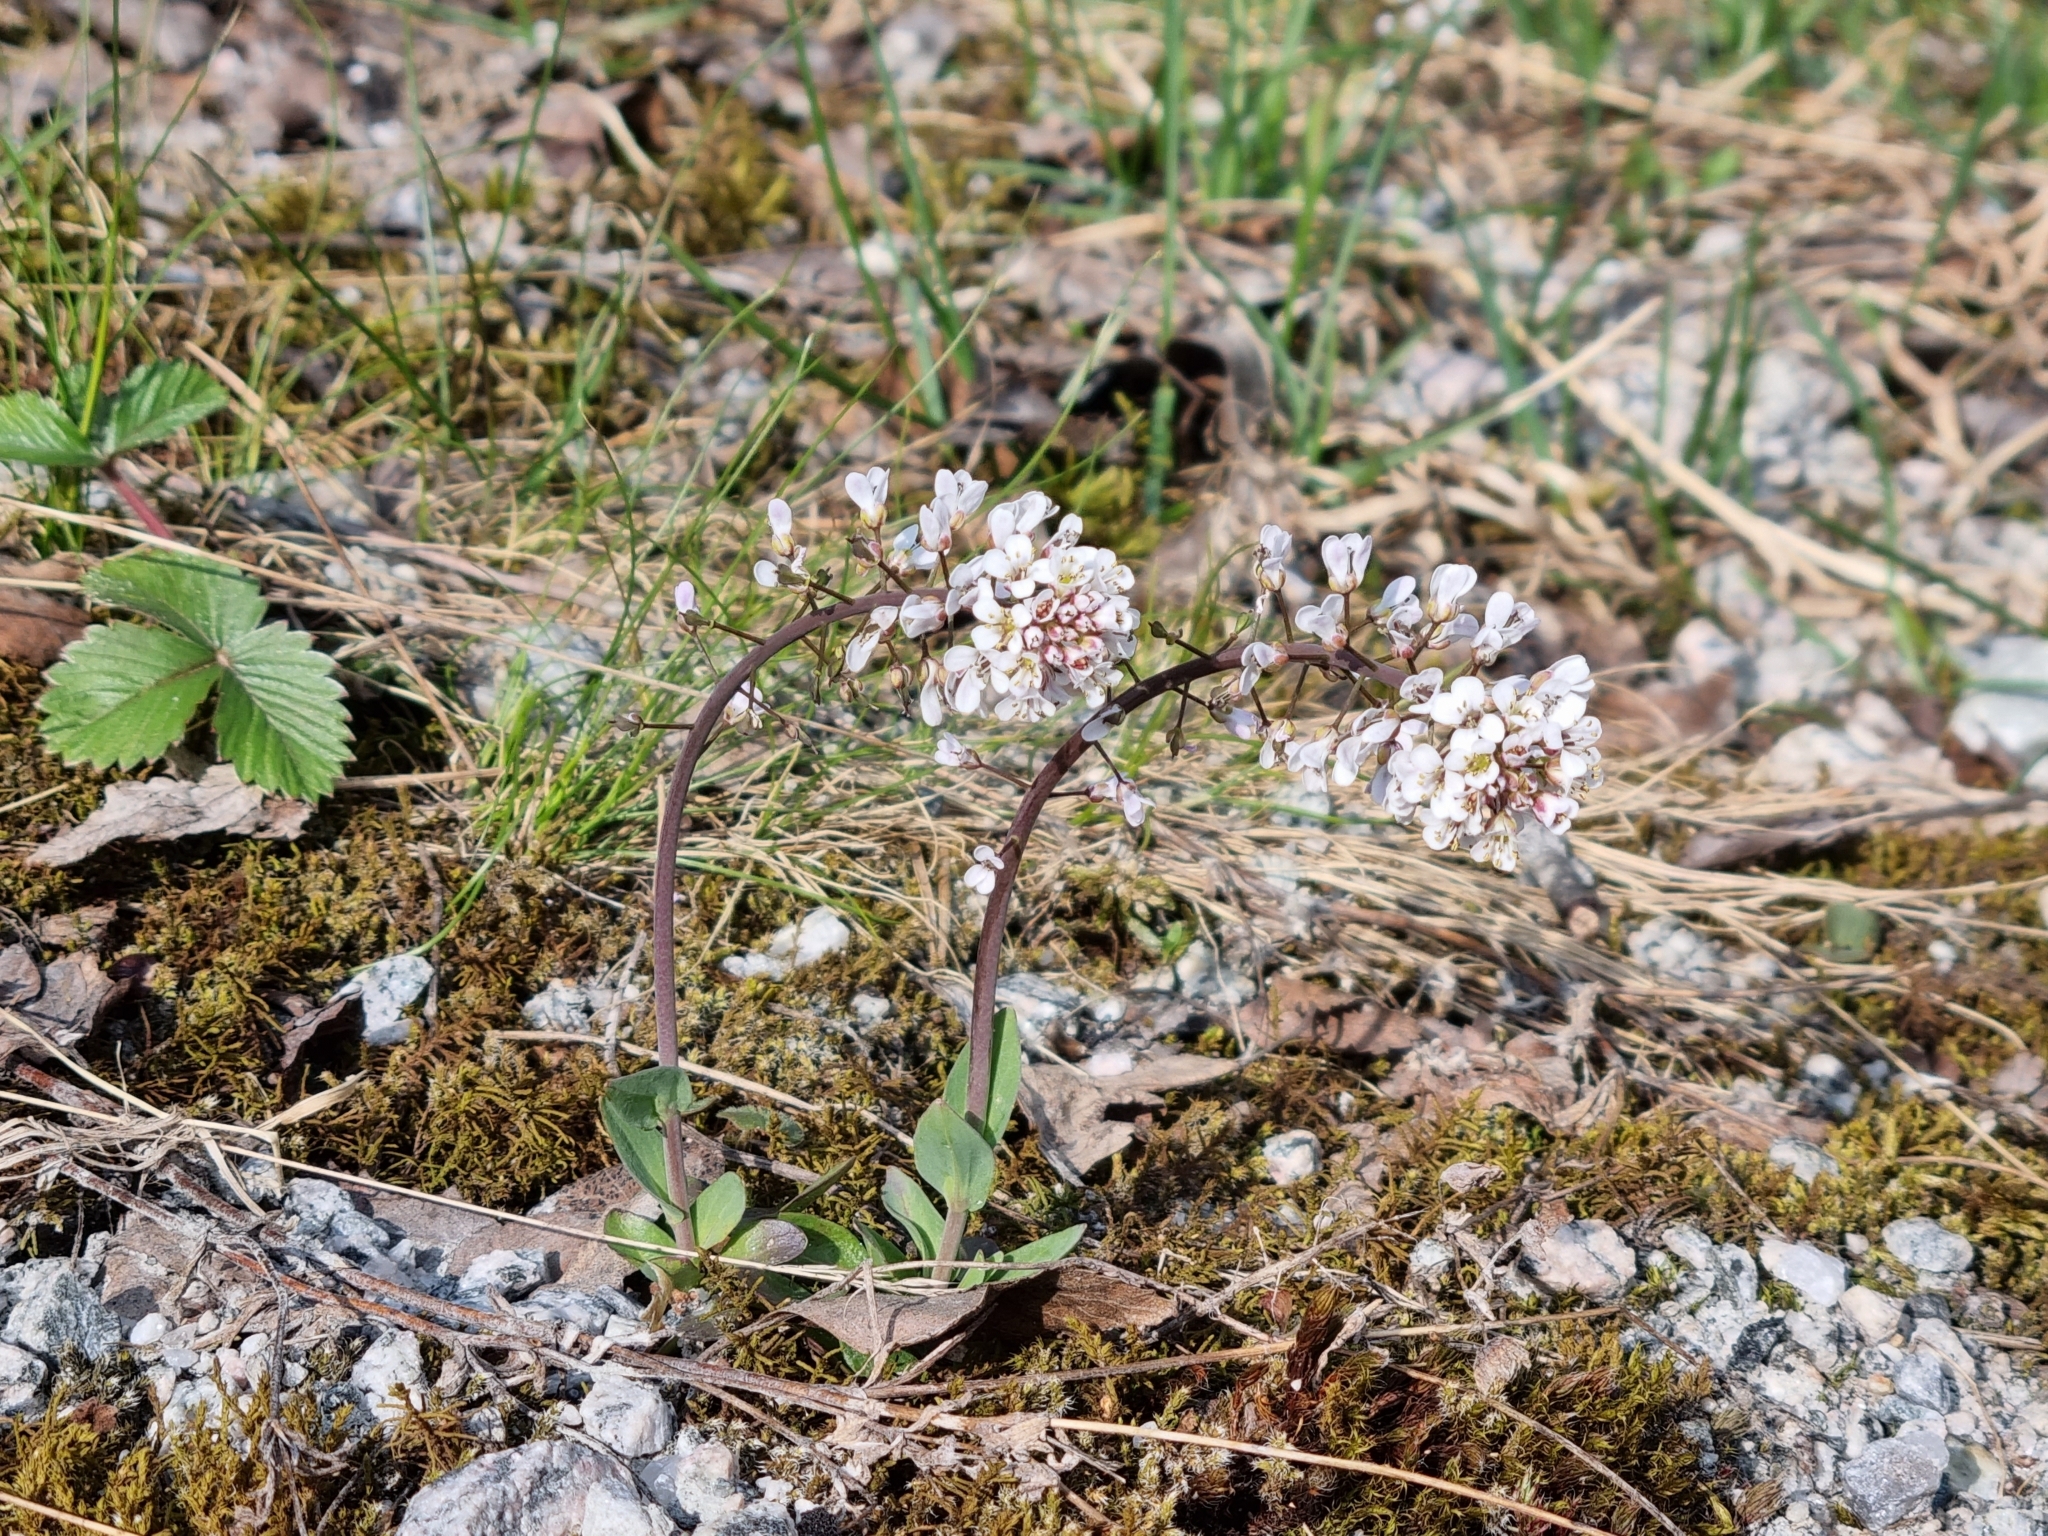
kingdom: Plantae
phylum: Tracheophyta
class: Magnoliopsida
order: Brassicales
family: Brassicaceae
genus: Noccaea
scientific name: Noccaea caerulescens
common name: Alpine pennycress
